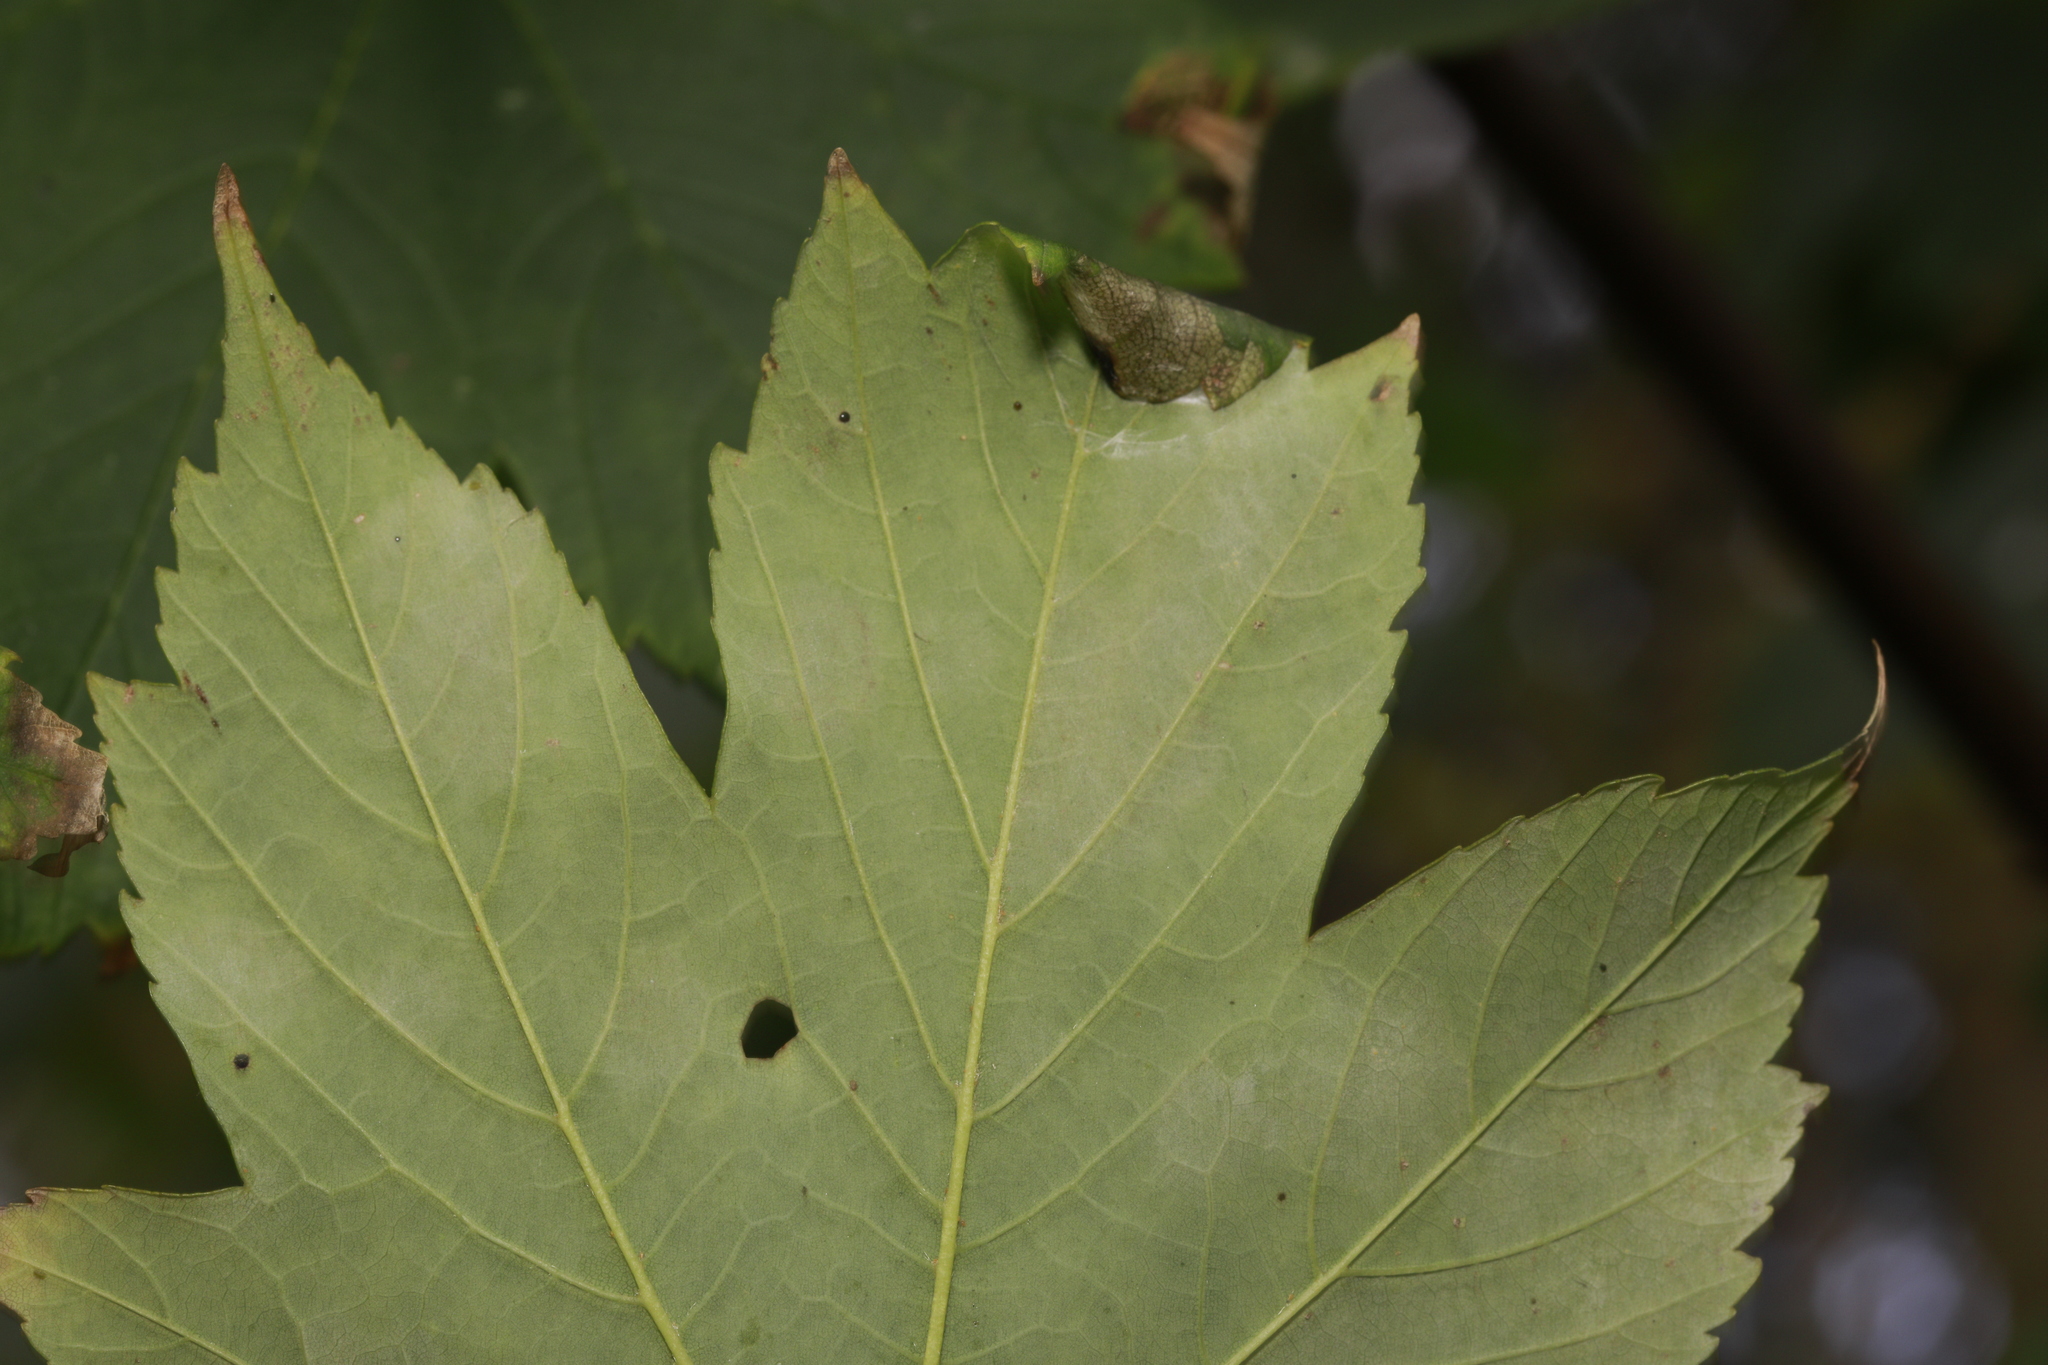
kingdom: Animalia
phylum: Arthropoda
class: Insecta
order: Lepidoptera
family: Gracillariidae
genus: Caloptilia
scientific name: Caloptilia rufipennella
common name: Small red slender
